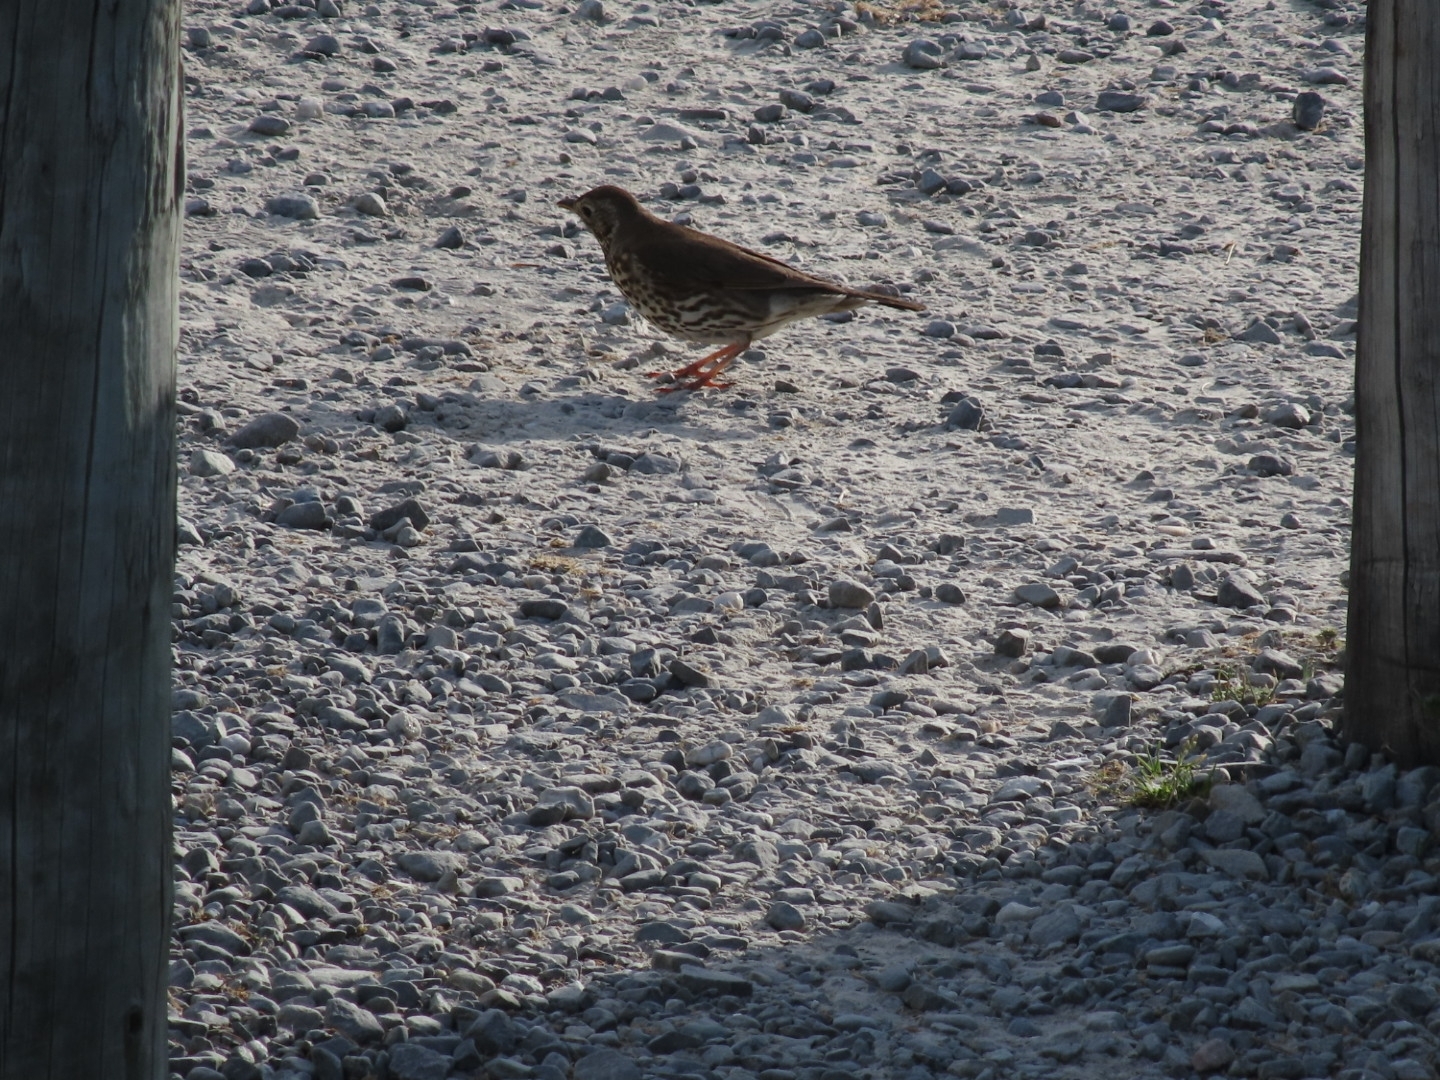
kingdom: Animalia
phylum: Chordata
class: Aves
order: Passeriformes
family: Turdidae
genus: Turdus
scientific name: Turdus philomelos
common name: Song thrush
